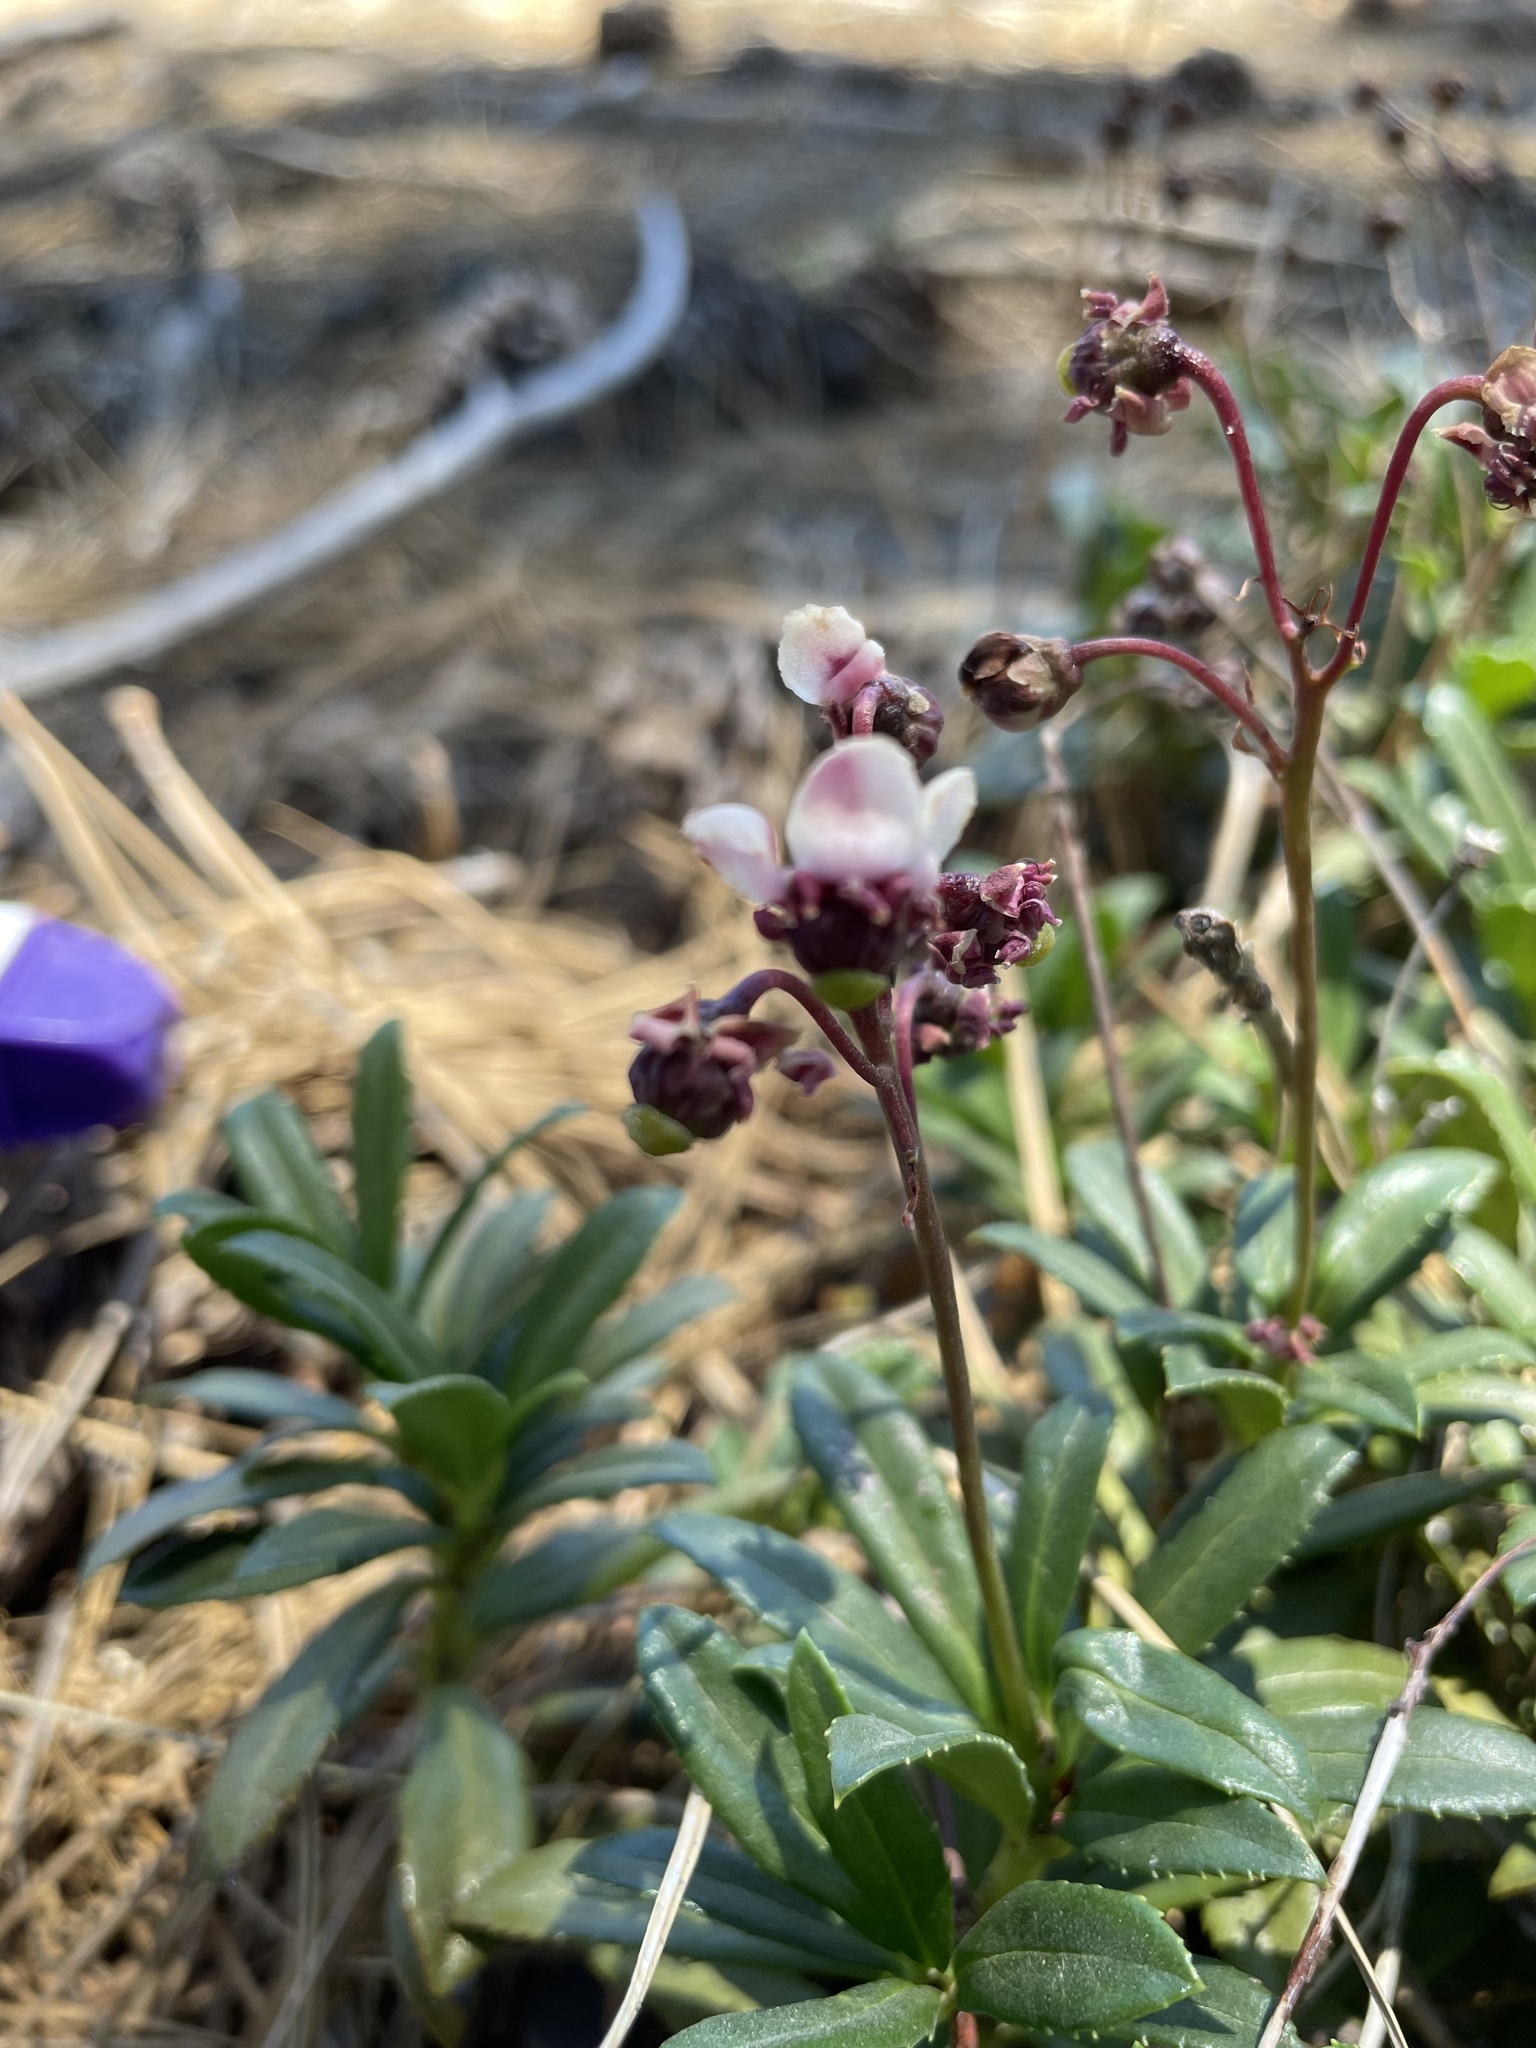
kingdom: Plantae
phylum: Tracheophyta
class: Magnoliopsida
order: Ericales
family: Ericaceae
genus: Chimaphila
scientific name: Chimaphila umbellata
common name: Pipsissewa
